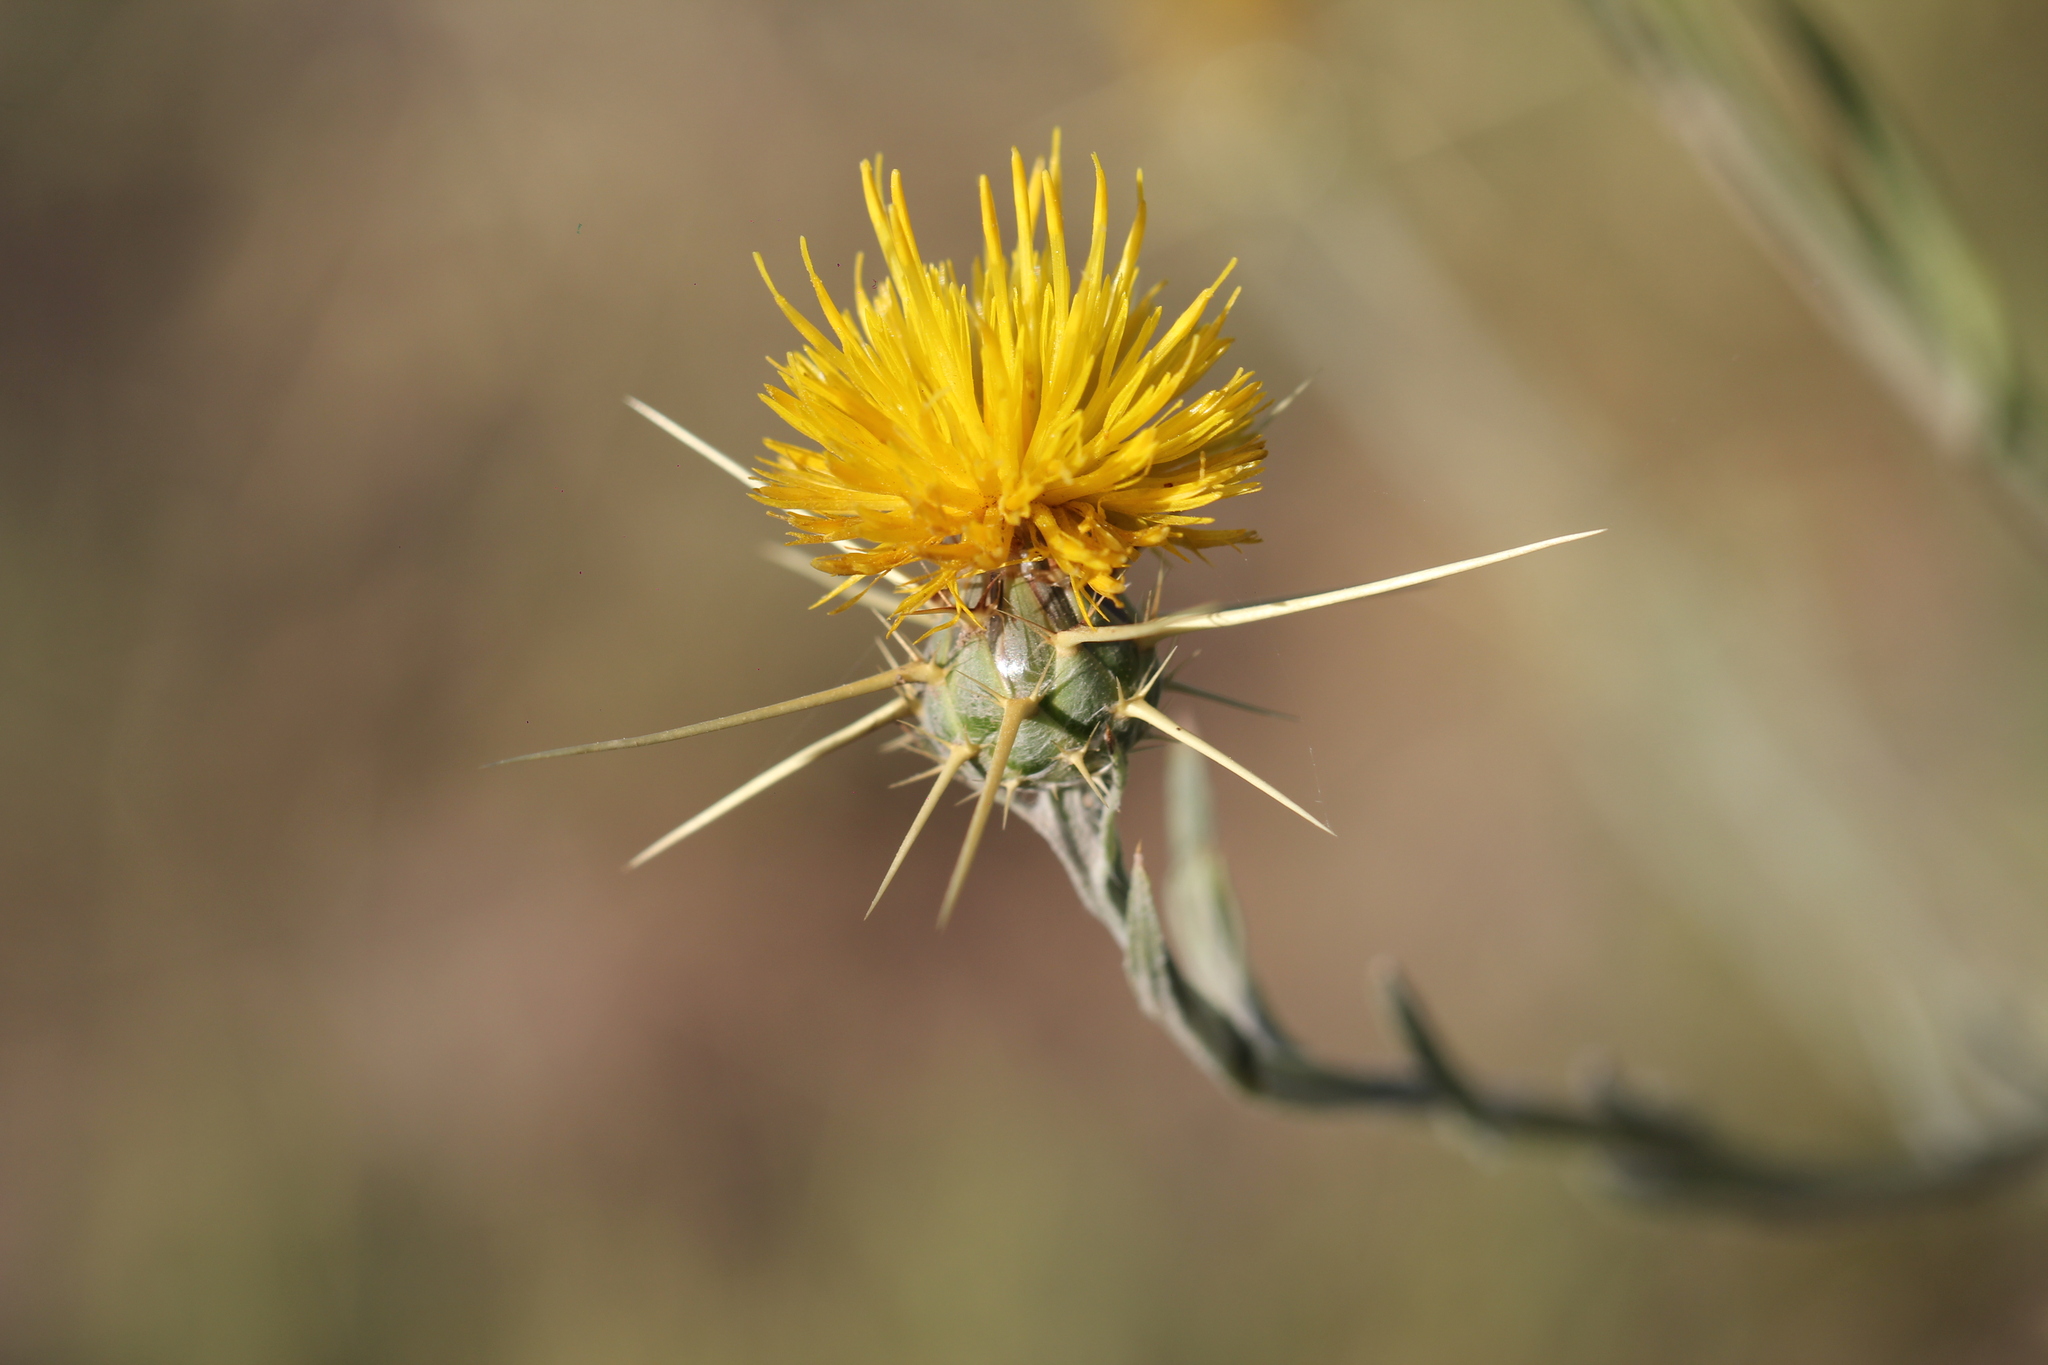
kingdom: Plantae
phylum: Tracheophyta
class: Magnoliopsida
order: Asterales
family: Asteraceae
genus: Centaurea
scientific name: Centaurea solstitialis
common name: Yellow star-thistle
